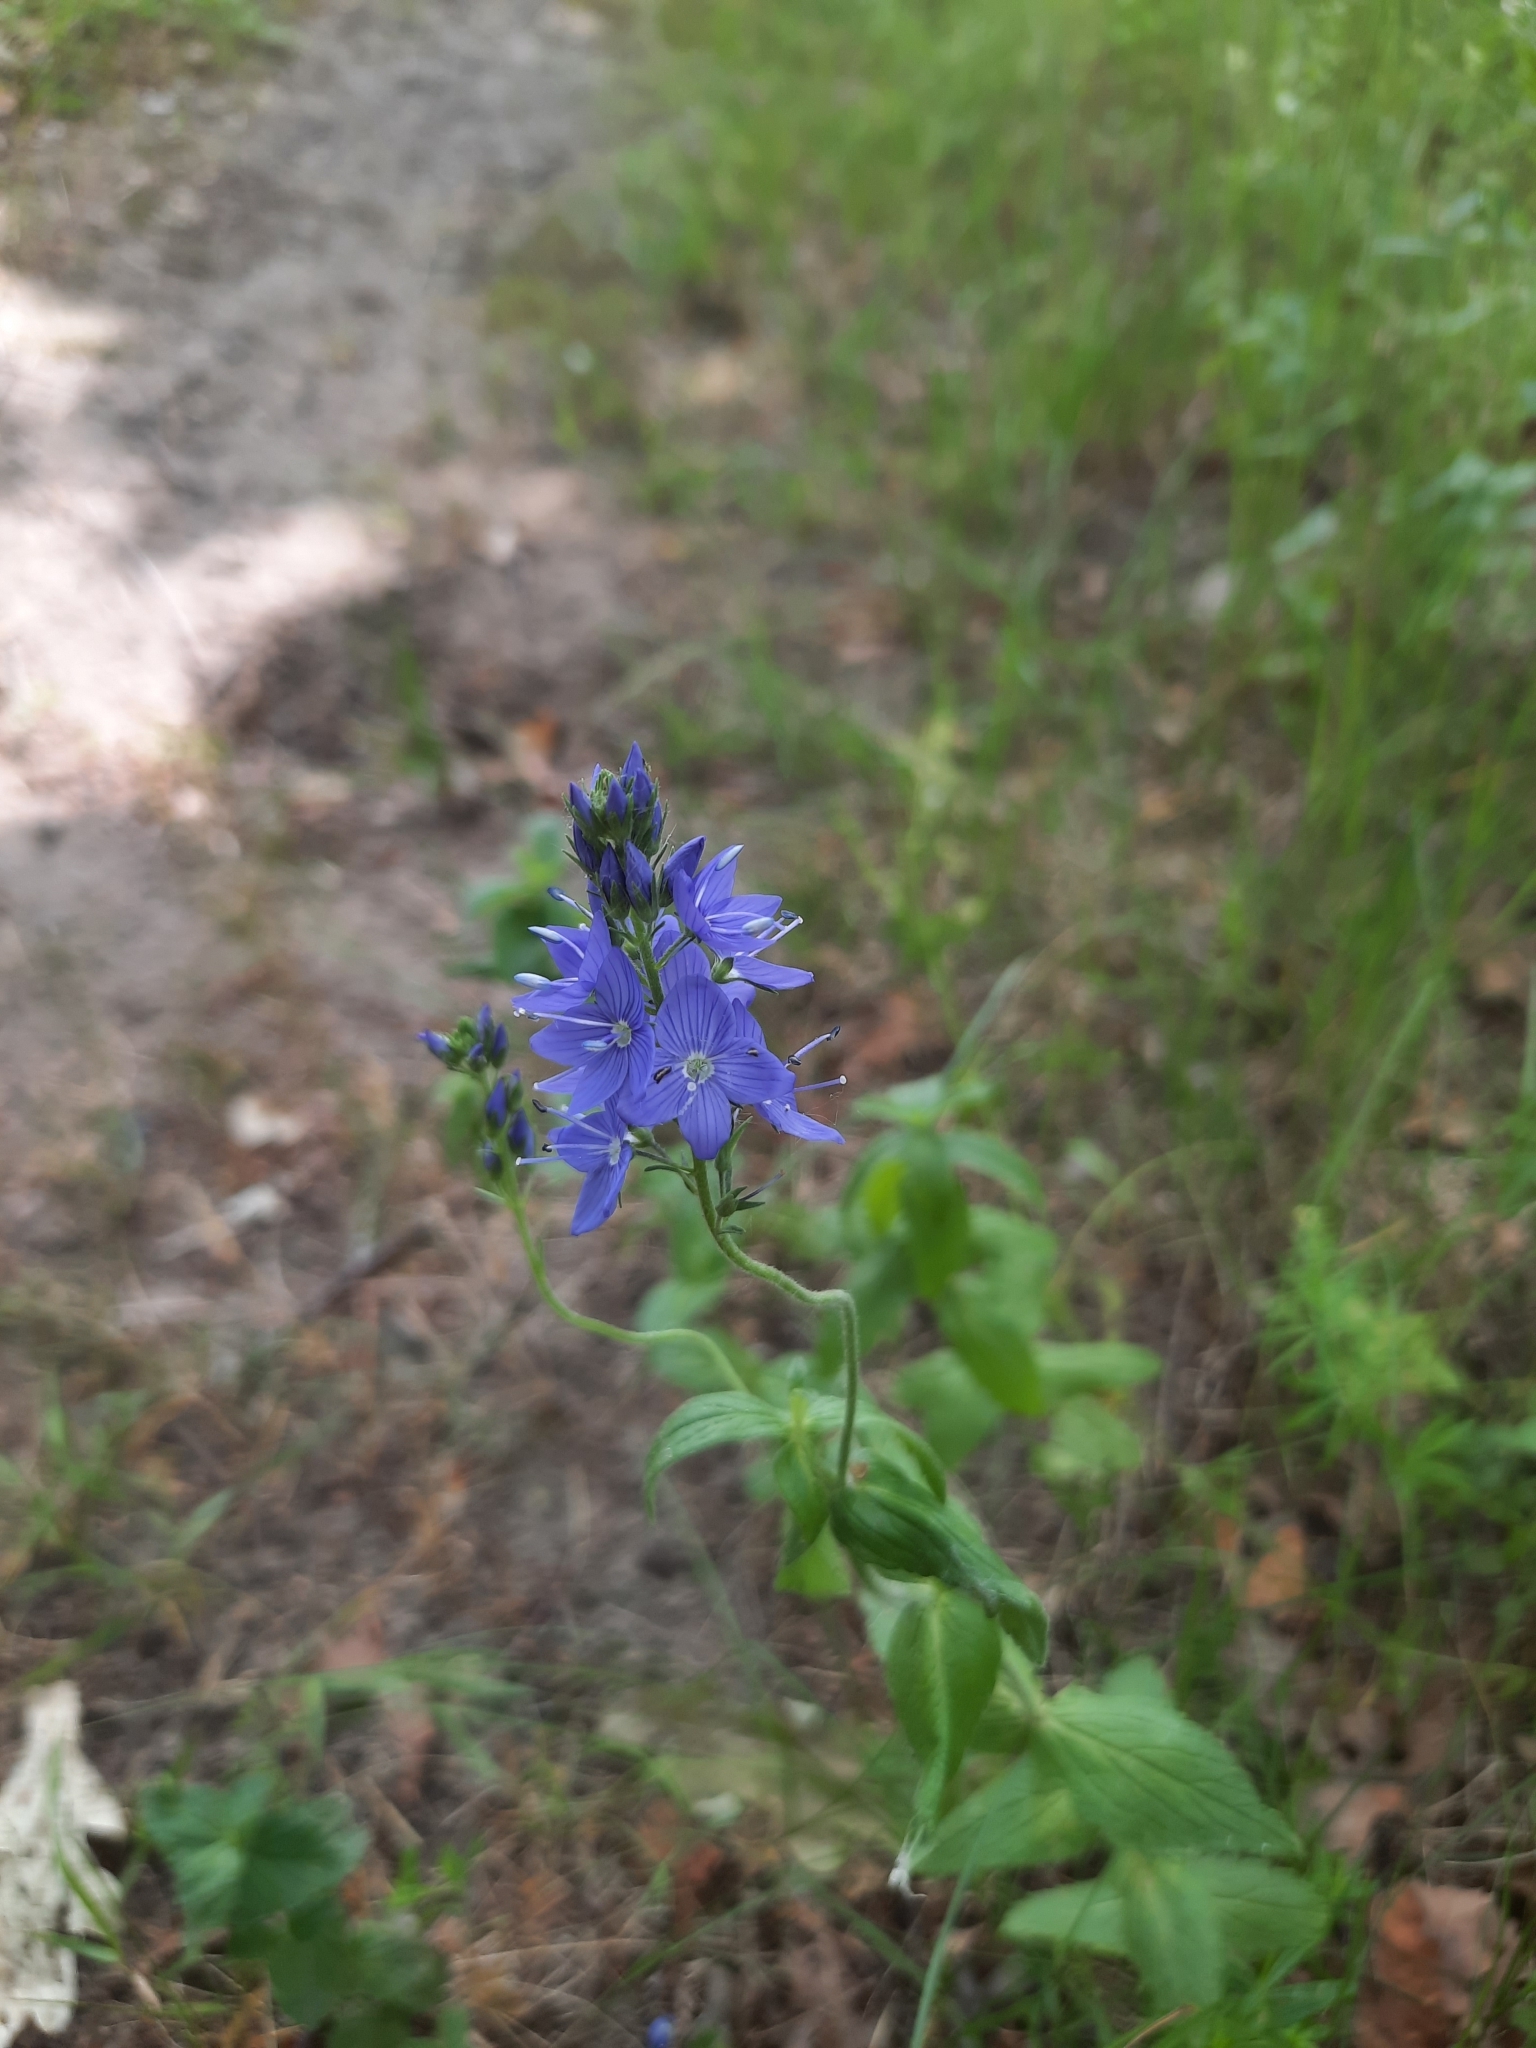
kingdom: Plantae
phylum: Tracheophyta
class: Magnoliopsida
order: Lamiales
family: Plantaginaceae
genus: Veronica
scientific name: Veronica teucrium
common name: Large speedwell
